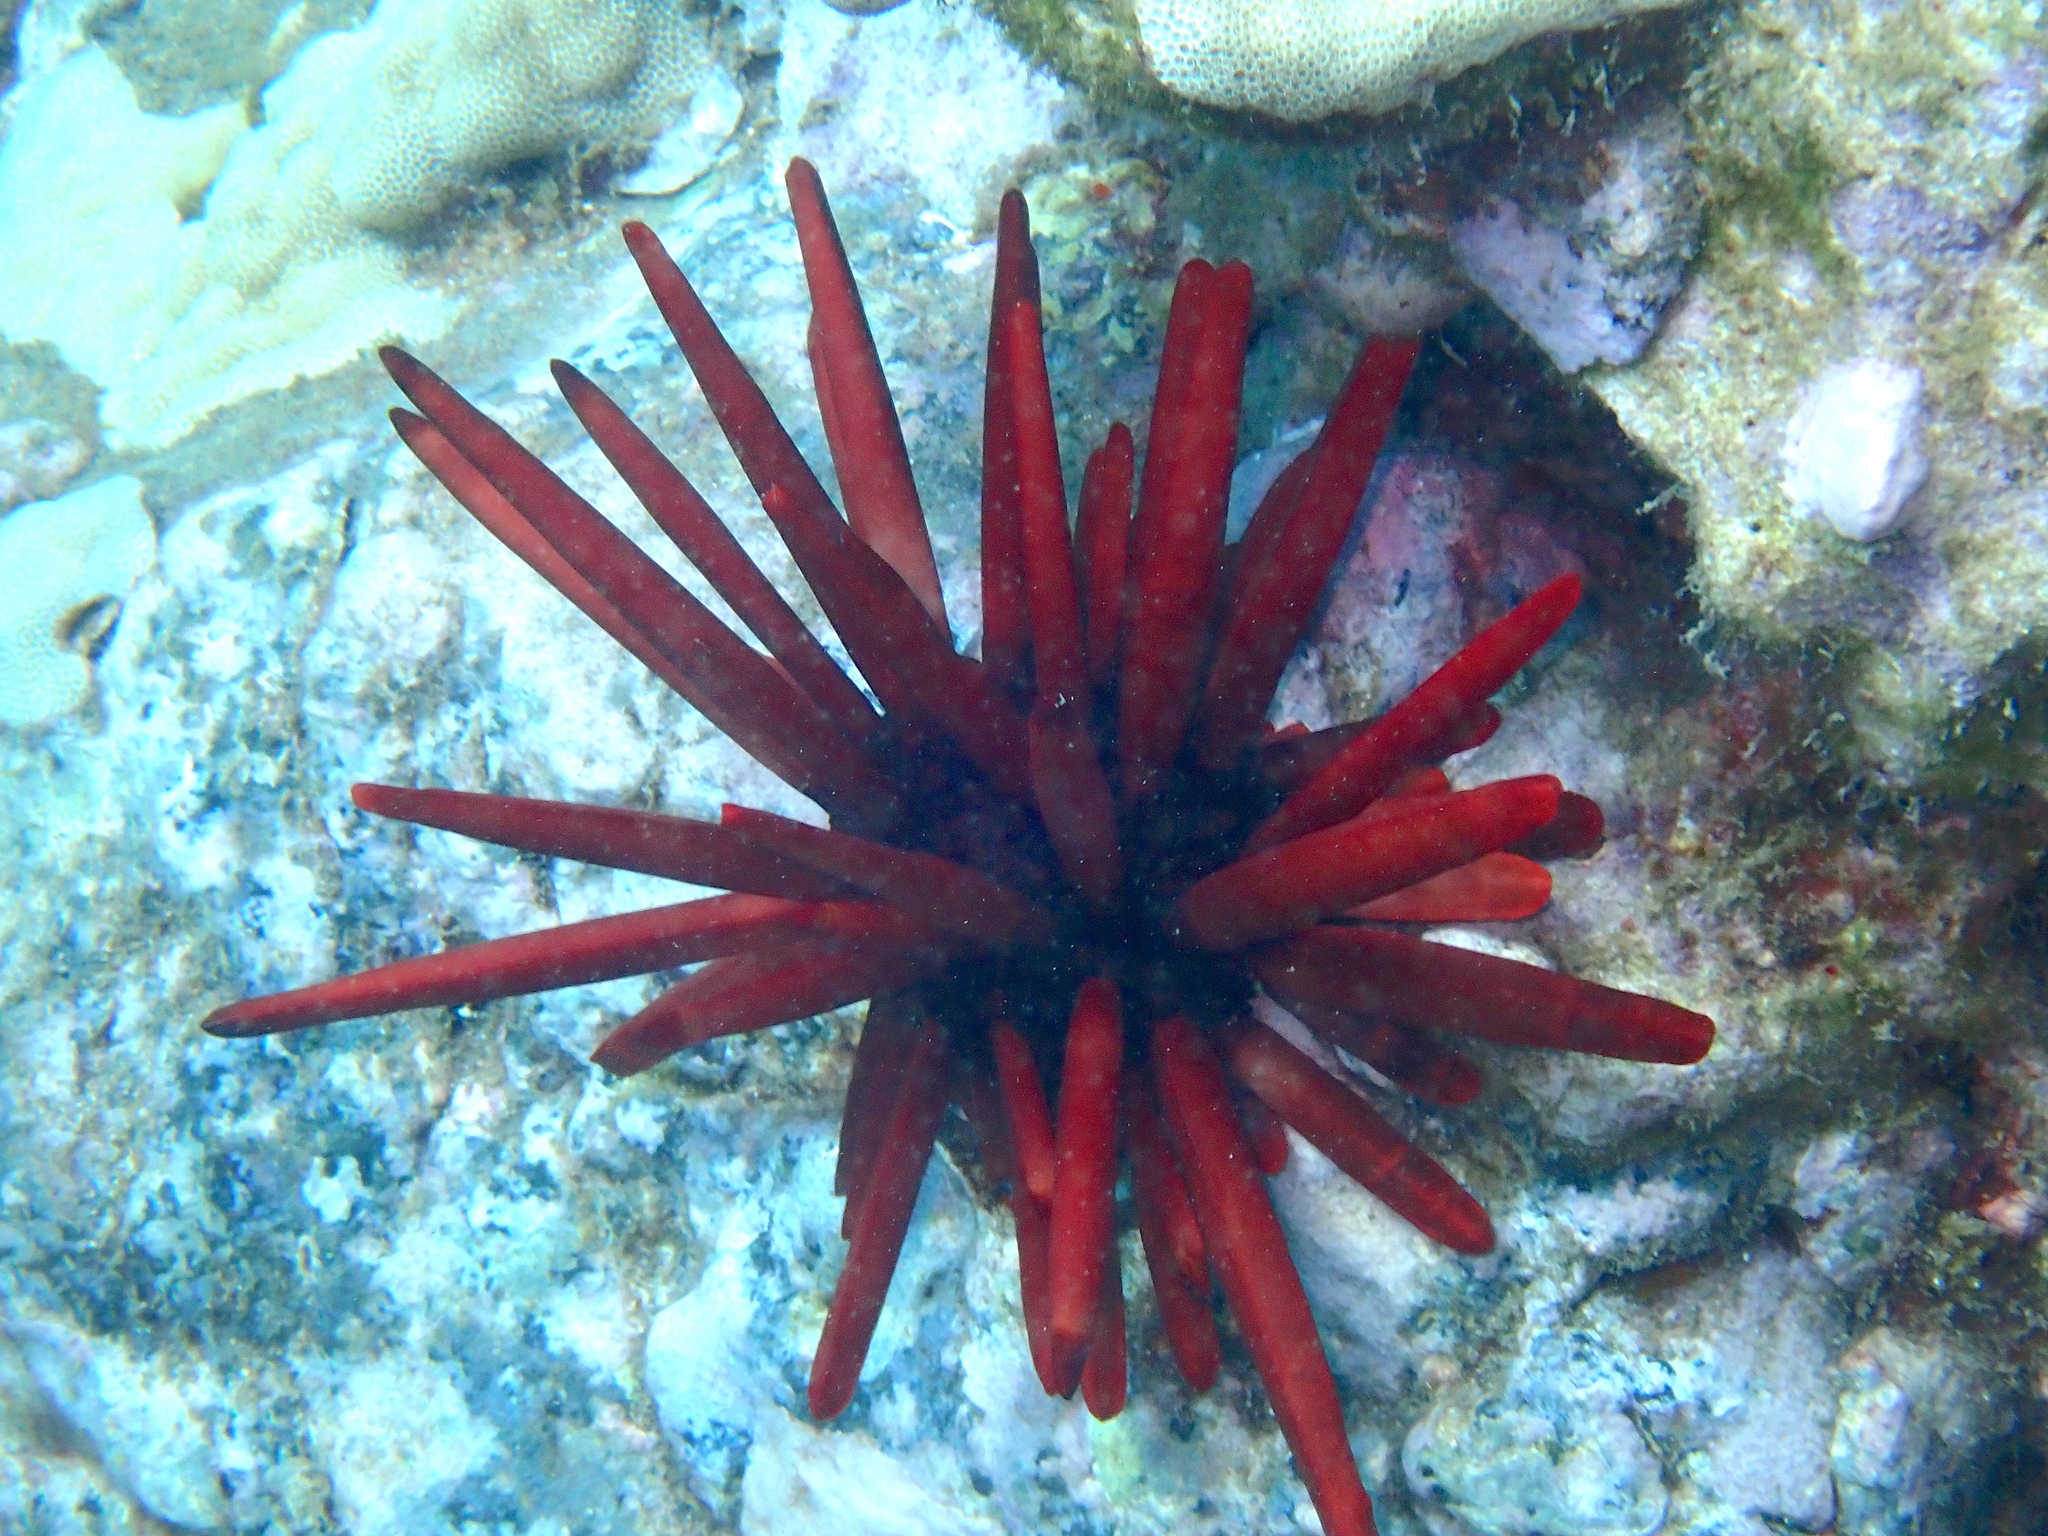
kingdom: Animalia
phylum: Echinodermata
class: Echinoidea
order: Camarodonta
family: Echinometridae
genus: Heterocentrotus
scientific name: Heterocentrotus mamillatus
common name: Slate pencil urchin
